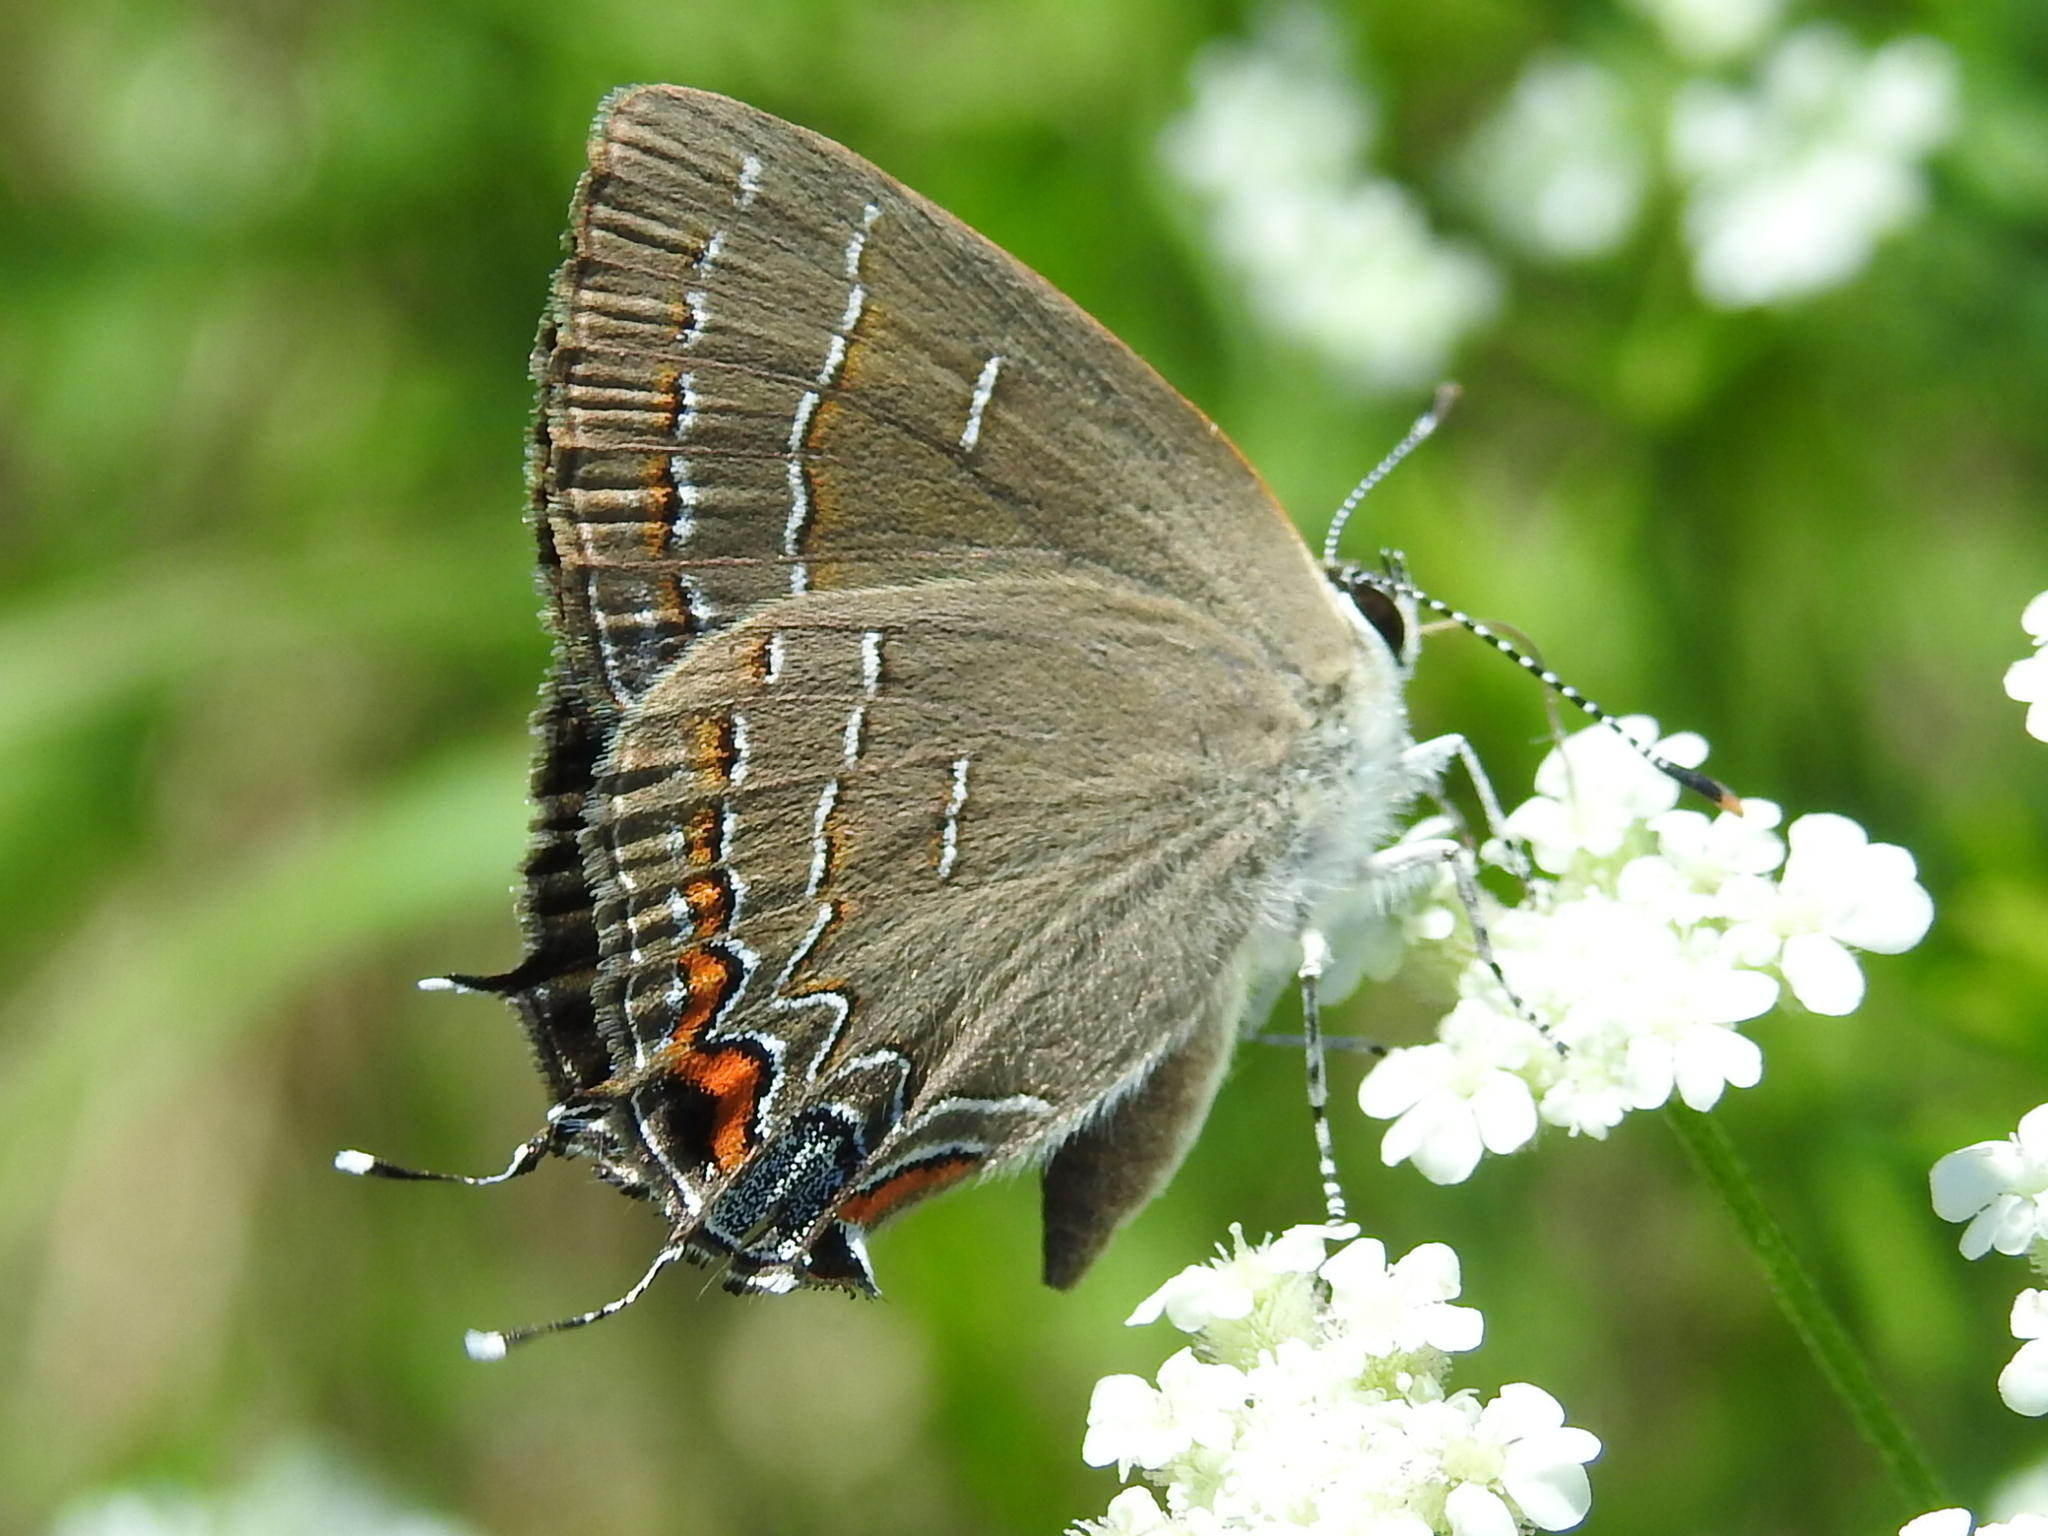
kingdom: Animalia
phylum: Arthropoda
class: Insecta
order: Lepidoptera
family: Lycaenidae
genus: Phaeostrymon
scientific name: Phaeostrymon alcestis
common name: Soapberry hairstreak
